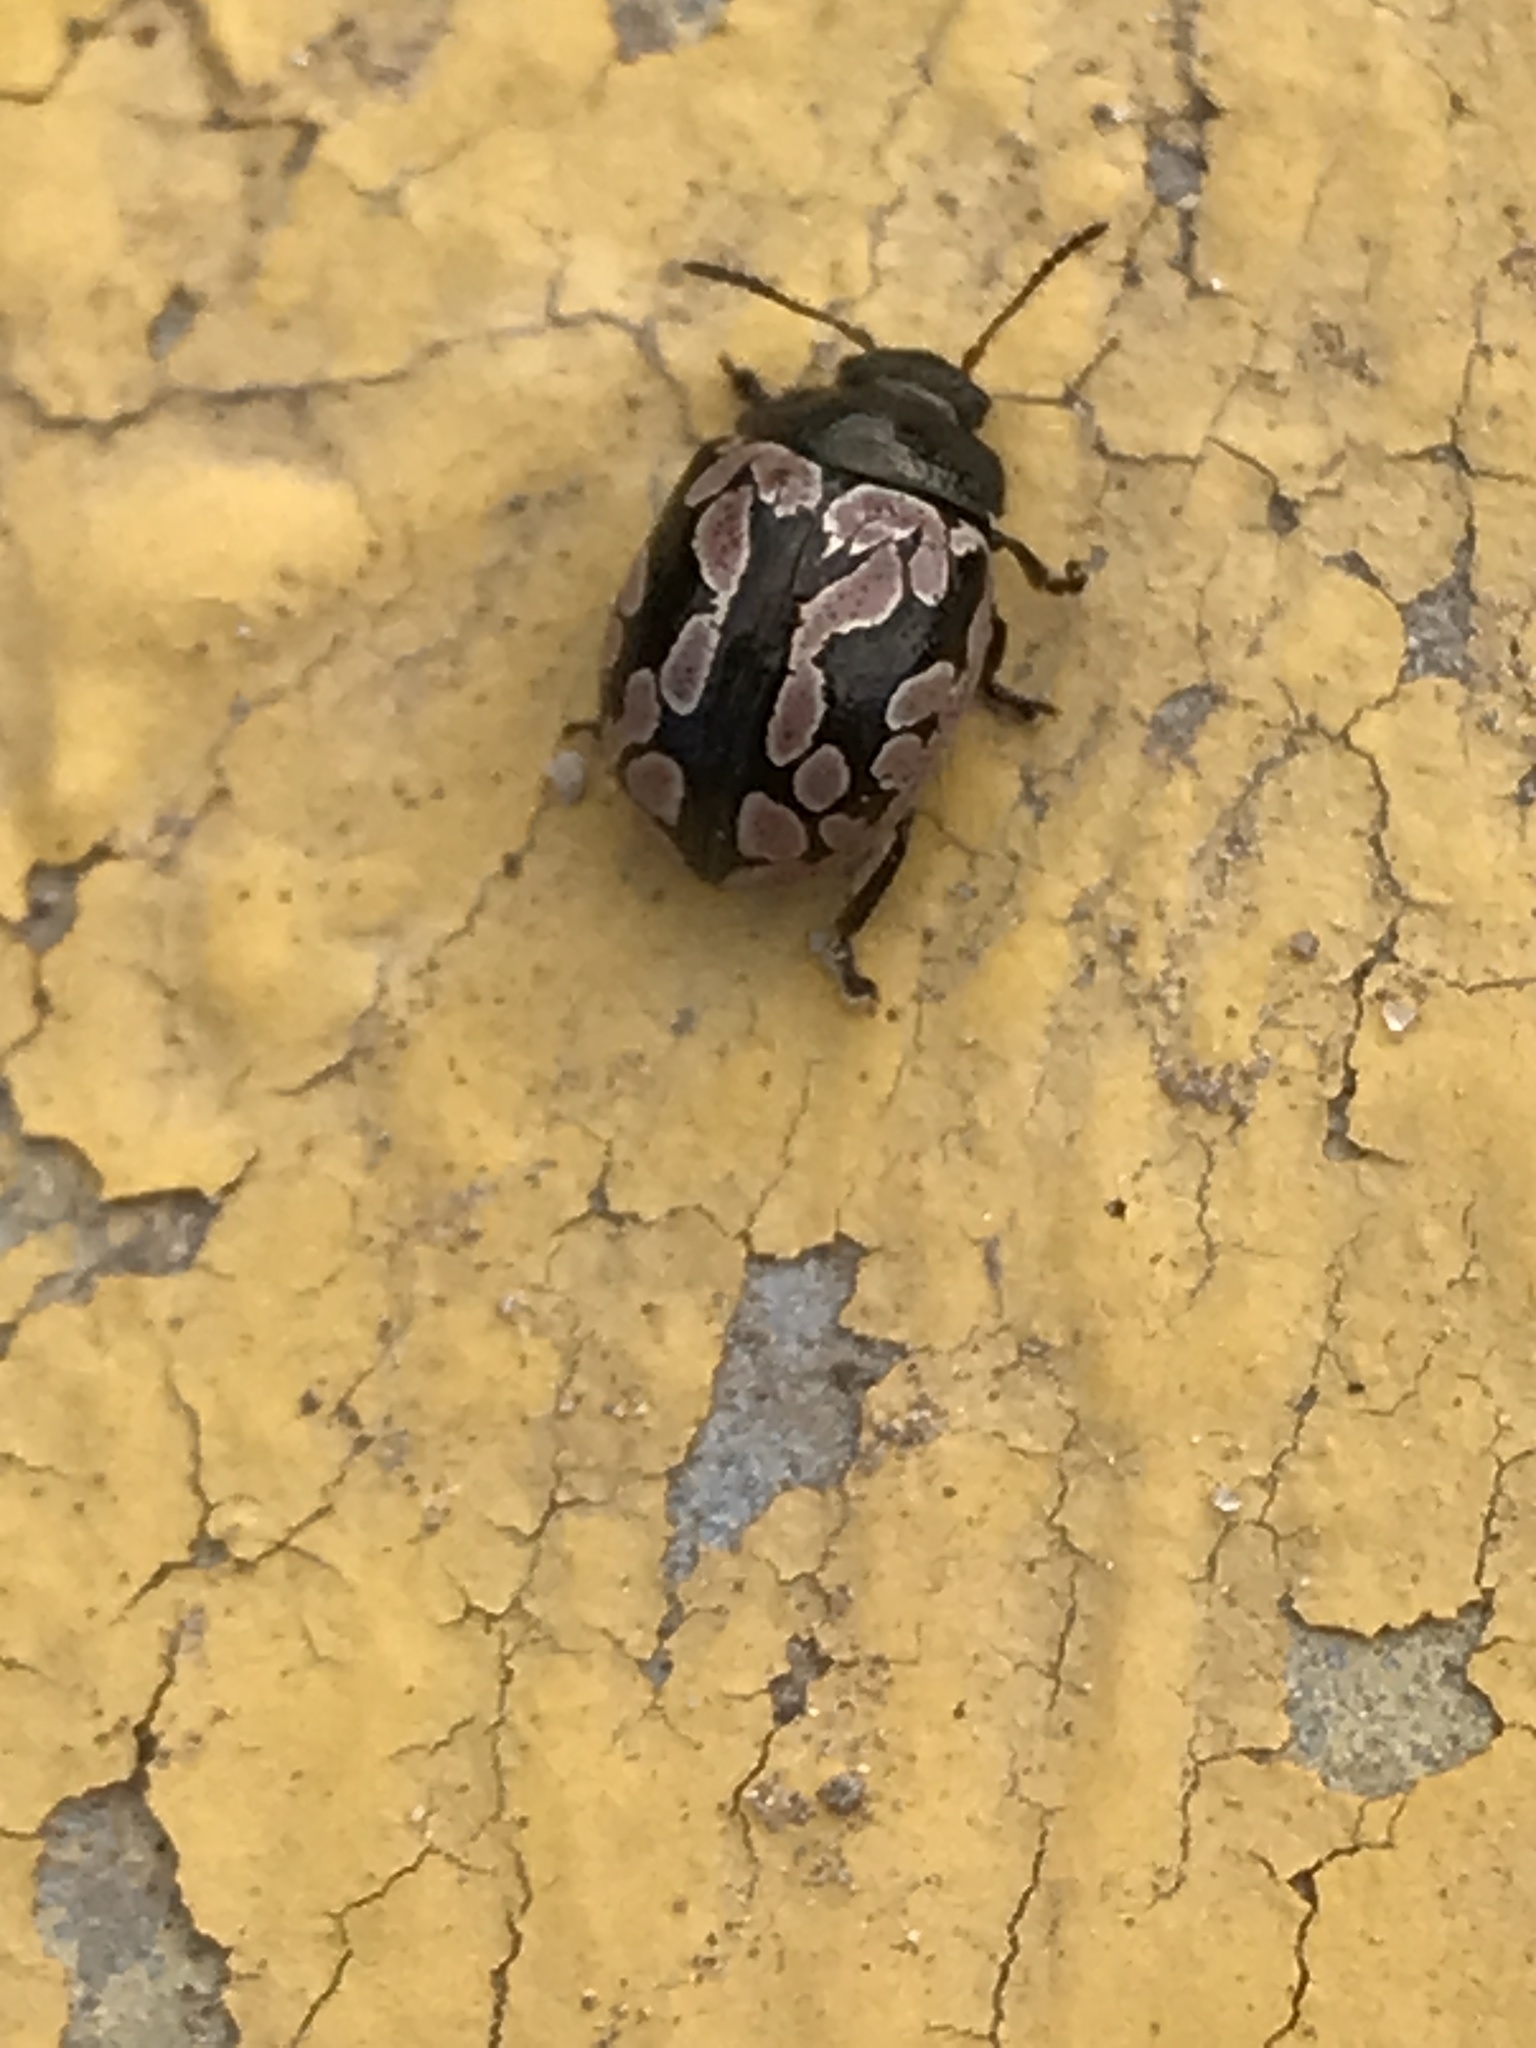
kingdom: Animalia
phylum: Arthropoda
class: Insecta
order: Coleoptera
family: Chrysomelidae
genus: Calligrapha
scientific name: Calligrapha multiguttata
